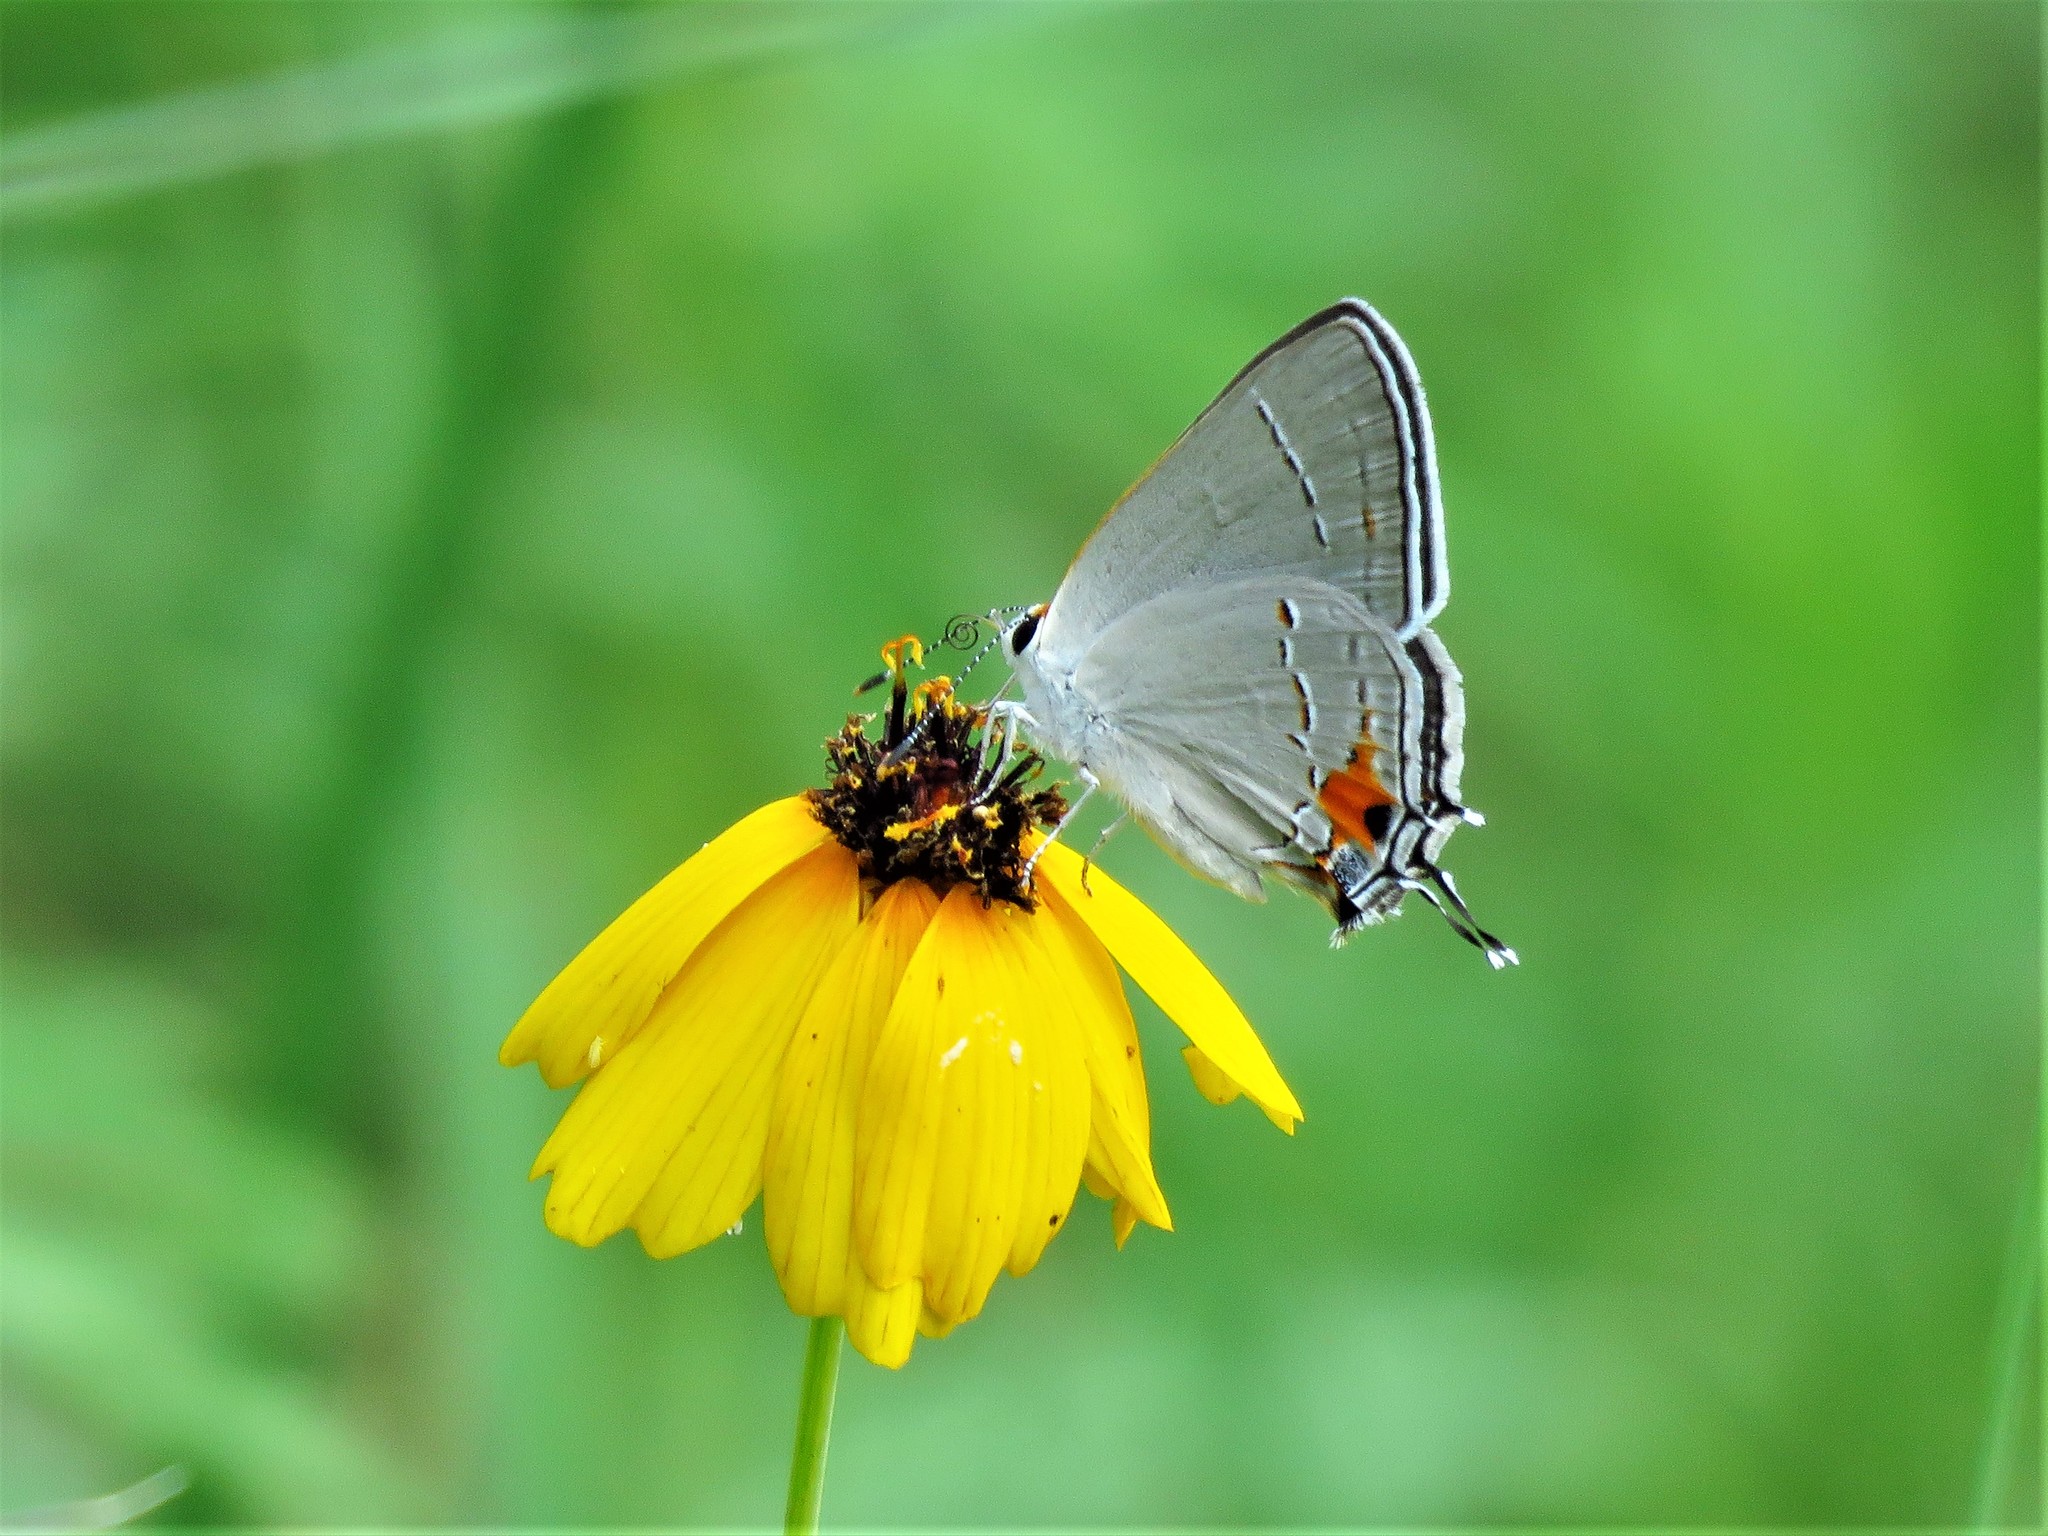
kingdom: Animalia
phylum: Arthropoda
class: Insecta
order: Lepidoptera
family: Lycaenidae
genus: Strymon
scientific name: Strymon melinus
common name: Gray hairstreak
